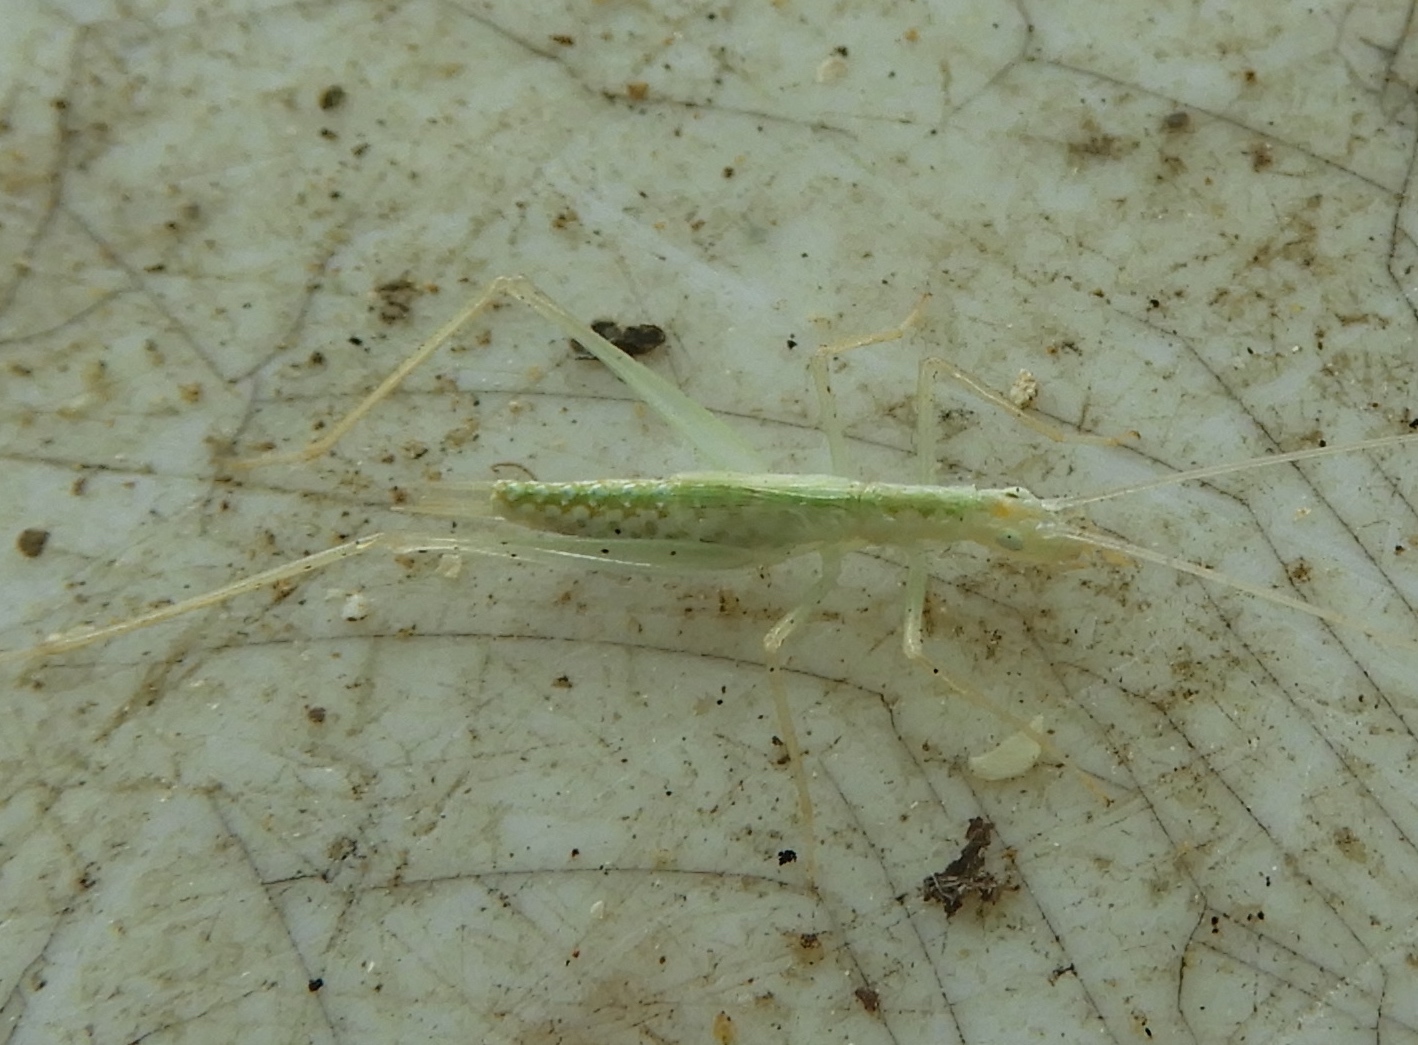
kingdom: Animalia
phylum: Arthropoda
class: Insecta
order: Orthoptera
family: Gryllidae
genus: Oecanthus
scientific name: Oecanthus
